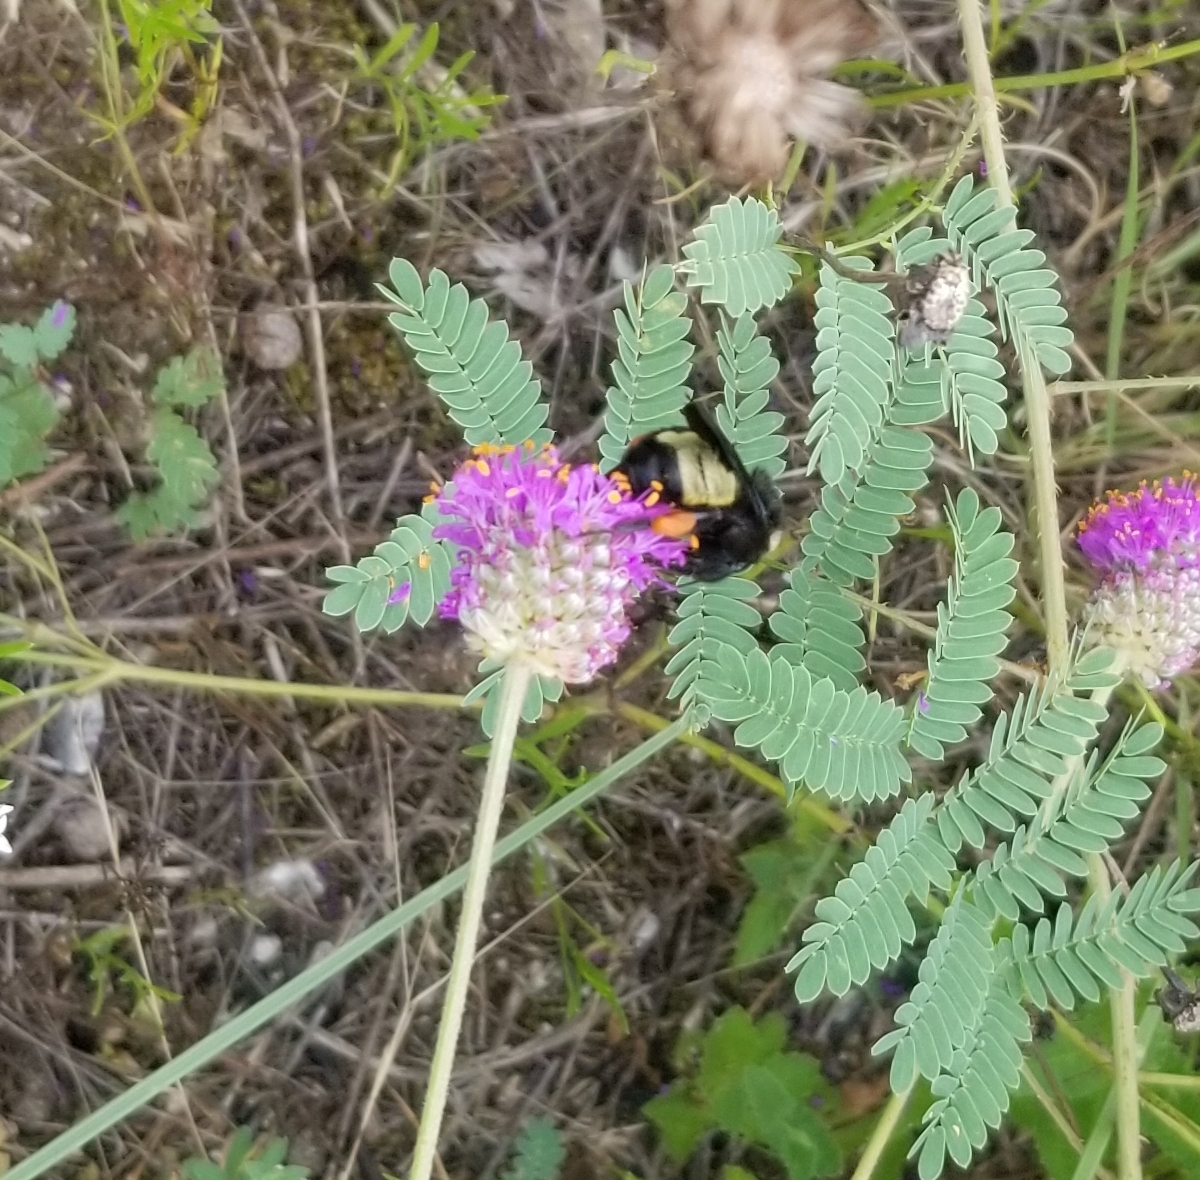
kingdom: Animalia
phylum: Arthropoda
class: Insecta
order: Hymenoptera
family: Apidae
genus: Bombus
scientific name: Bombus pensylvanicus
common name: Bumble bee
